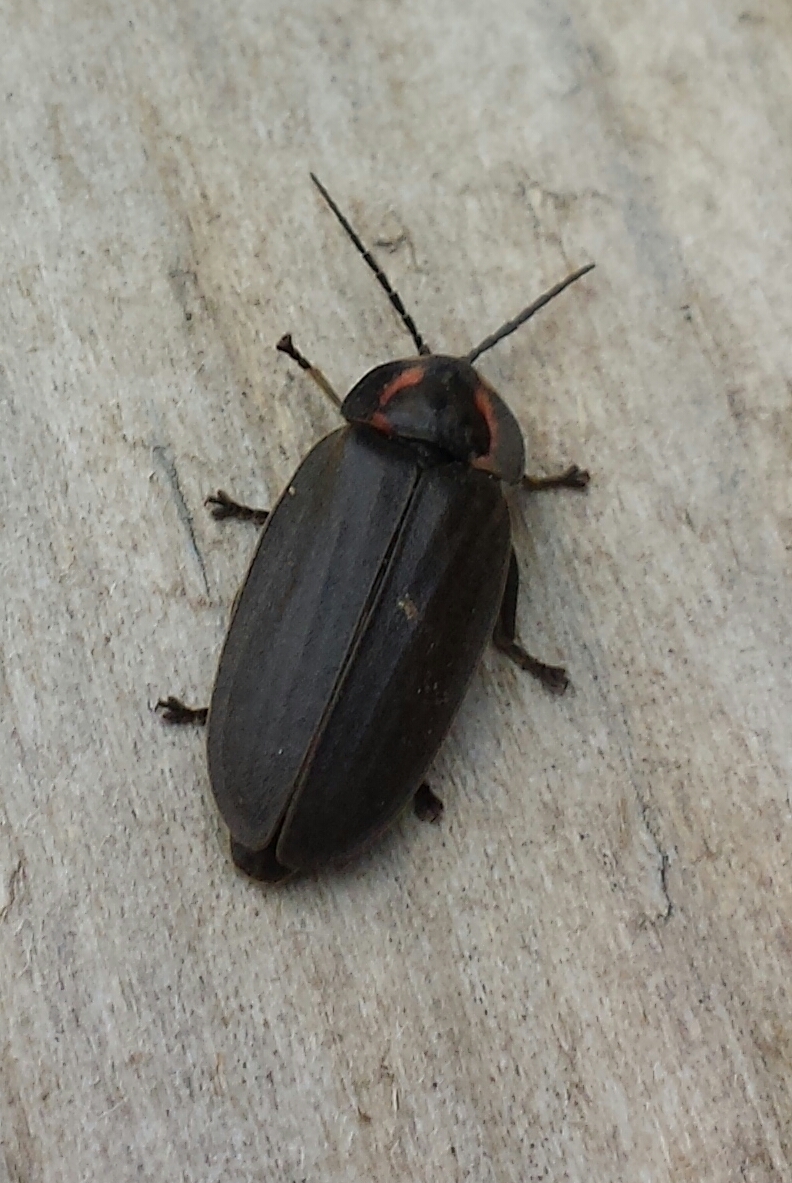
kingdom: Animalia
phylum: Arthropoda
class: Insecta
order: Coleoptera
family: Lampyridae
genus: Photinus
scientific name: Photinus corrusca
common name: Winter firefly
